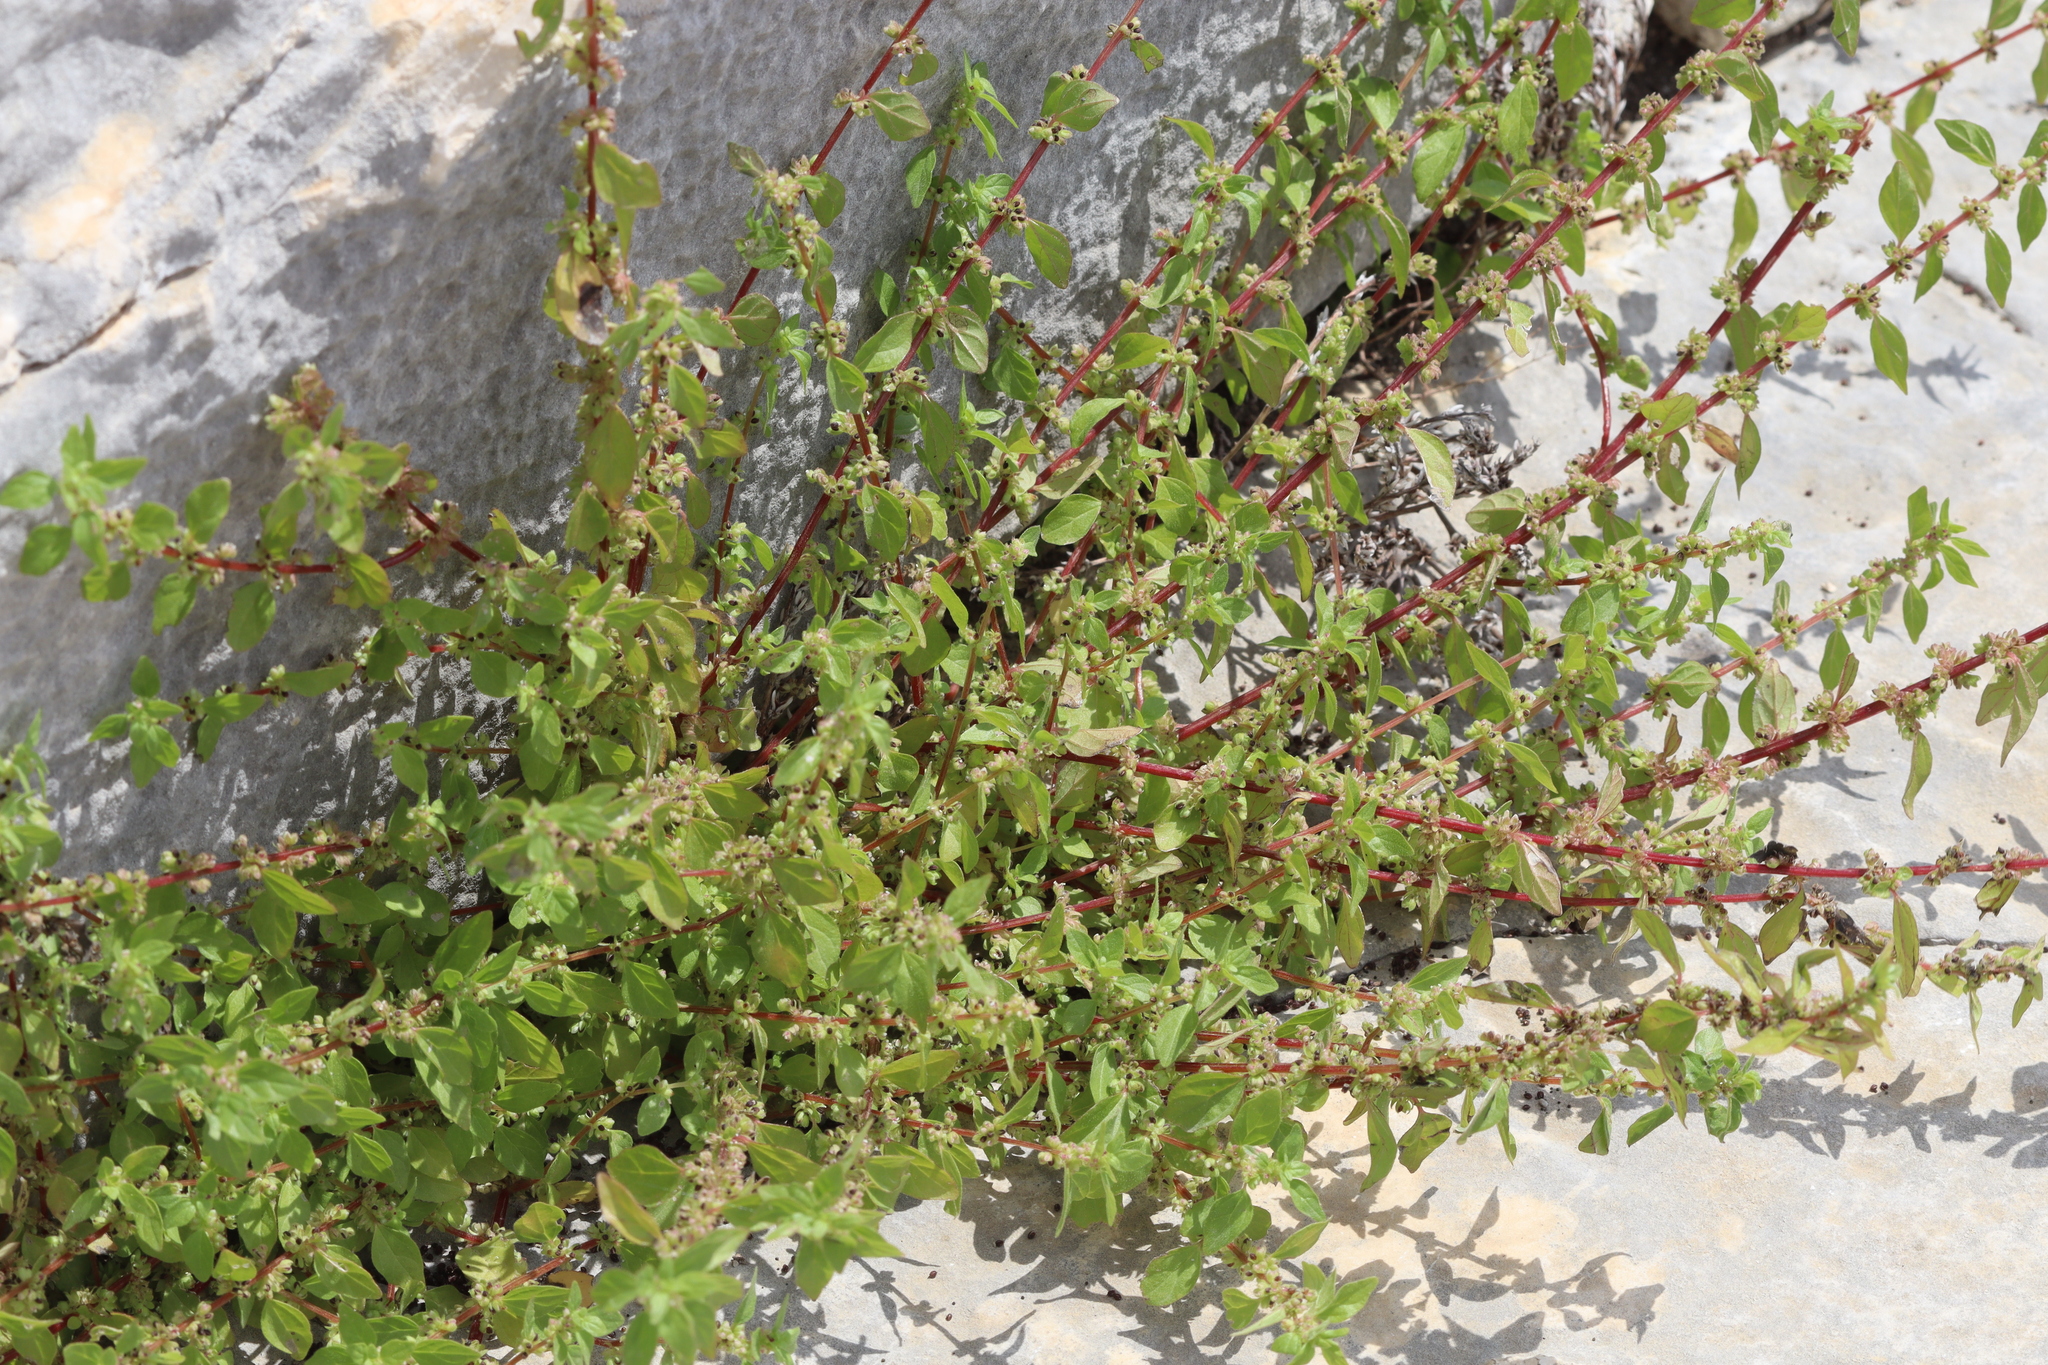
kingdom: Plantae
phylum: Tracheophyta
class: Magnoliopsida
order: Rosales
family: Urticaceae
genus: Parietaria
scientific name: Parietaria judaica
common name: Pellitory-of-the-wall
